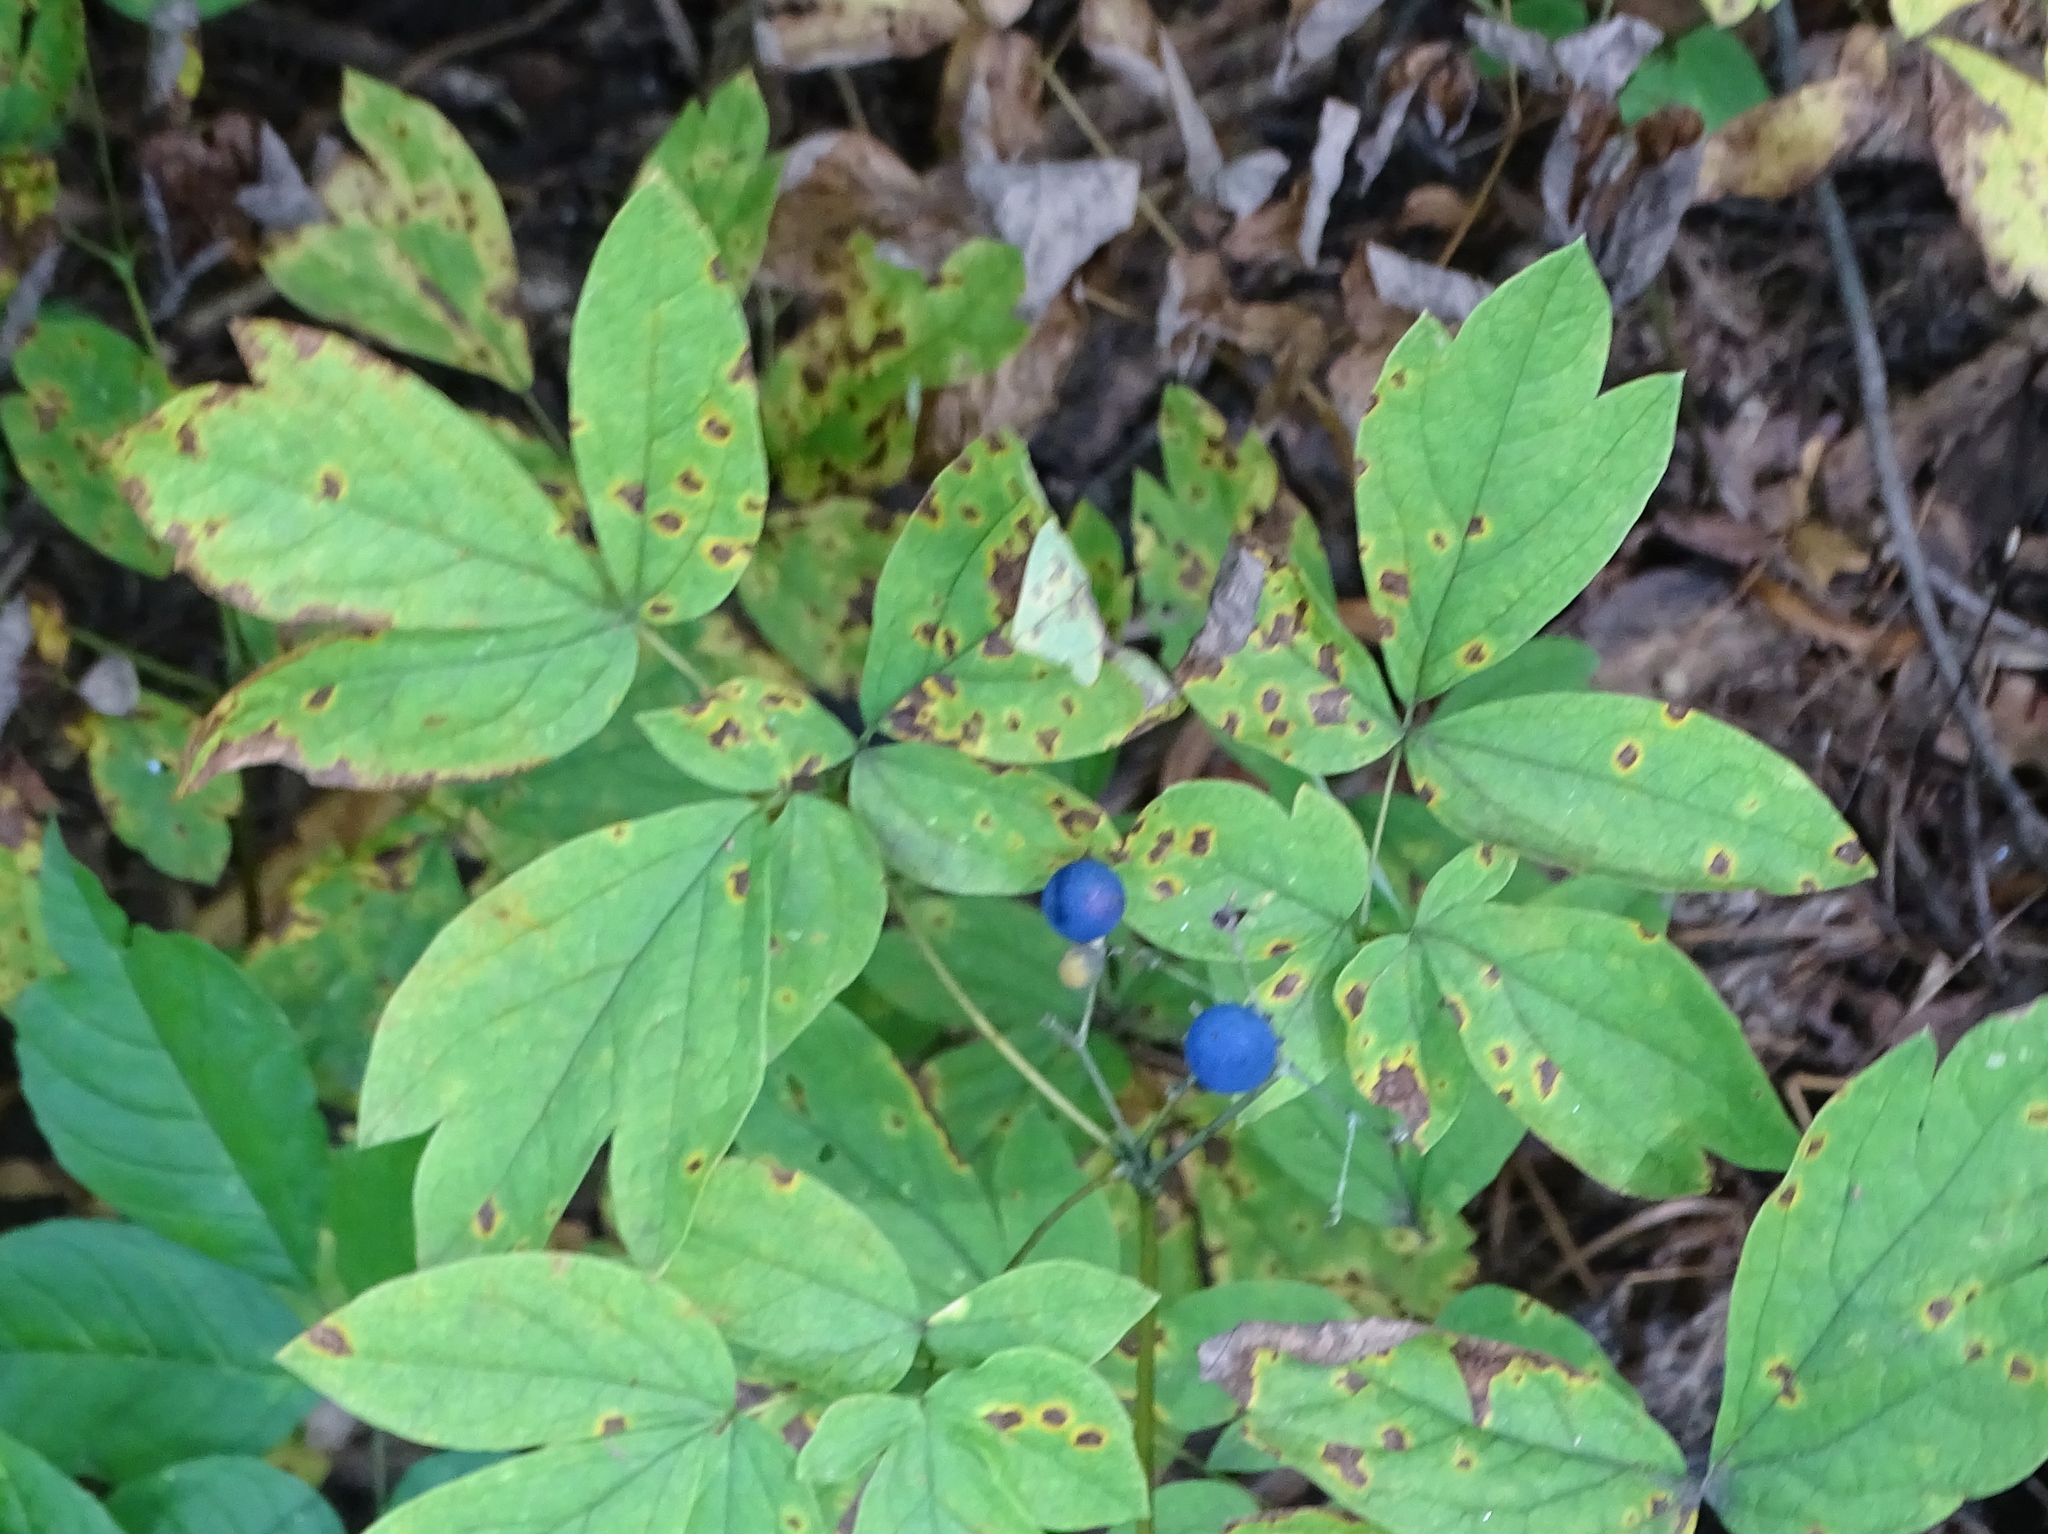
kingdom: Plantae
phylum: Tracheophyta
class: Magnoliopsida
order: Ranunculales
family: Berberidaceae
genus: Caulophyllum
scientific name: Caulophyllum thalictroides
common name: Blue cohosh
